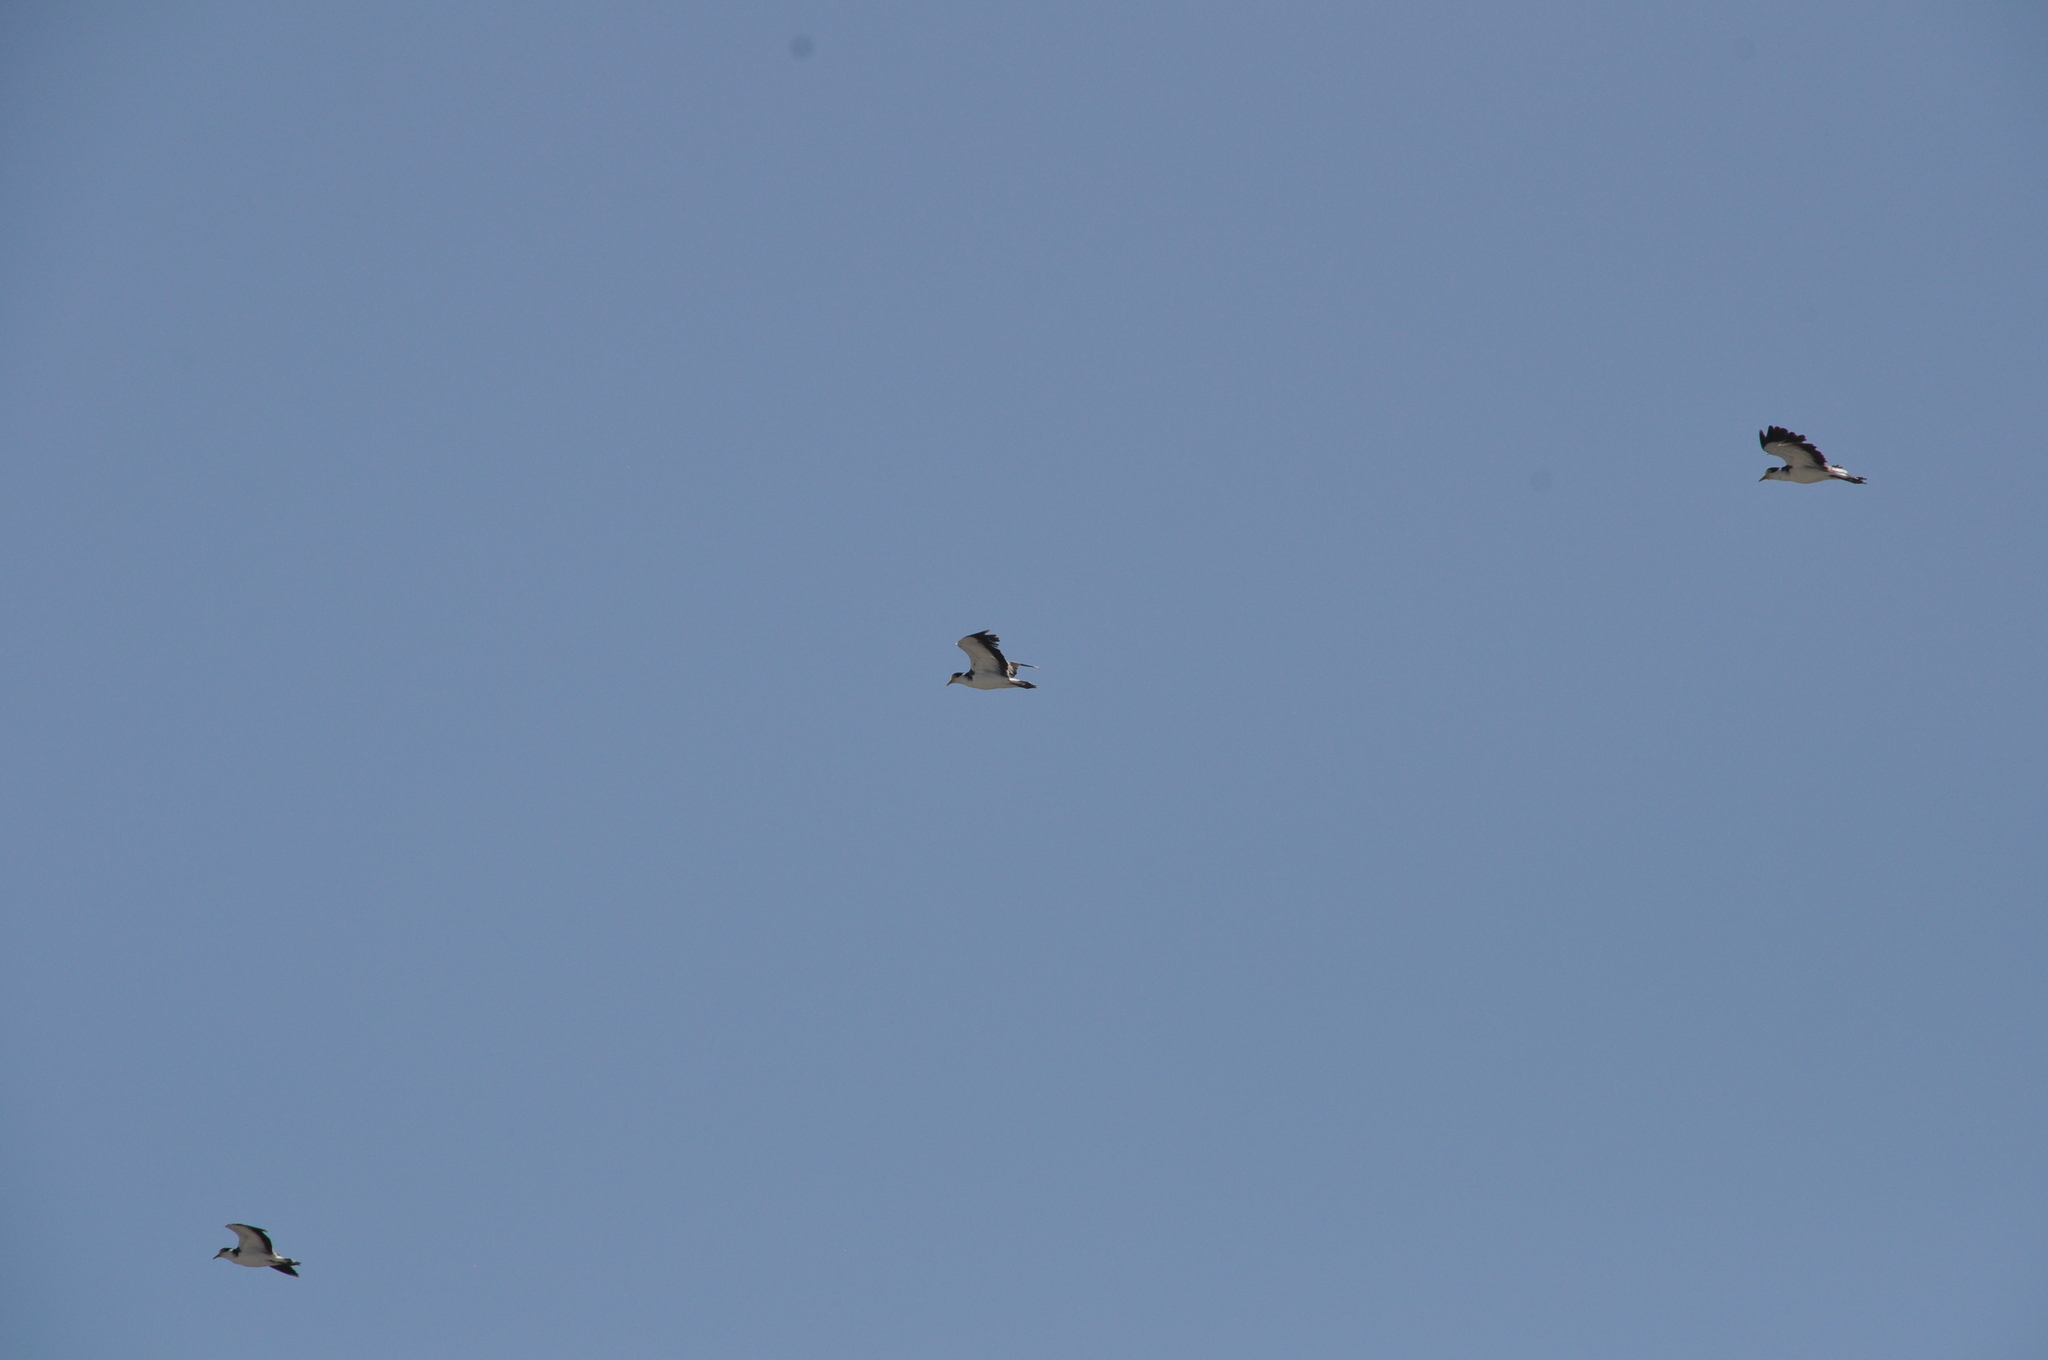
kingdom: Animalia
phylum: Chordata
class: Aves
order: Charadriiformes
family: Charadriidae
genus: Vanellus
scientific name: Vanellus miles
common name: Masked lapwing
